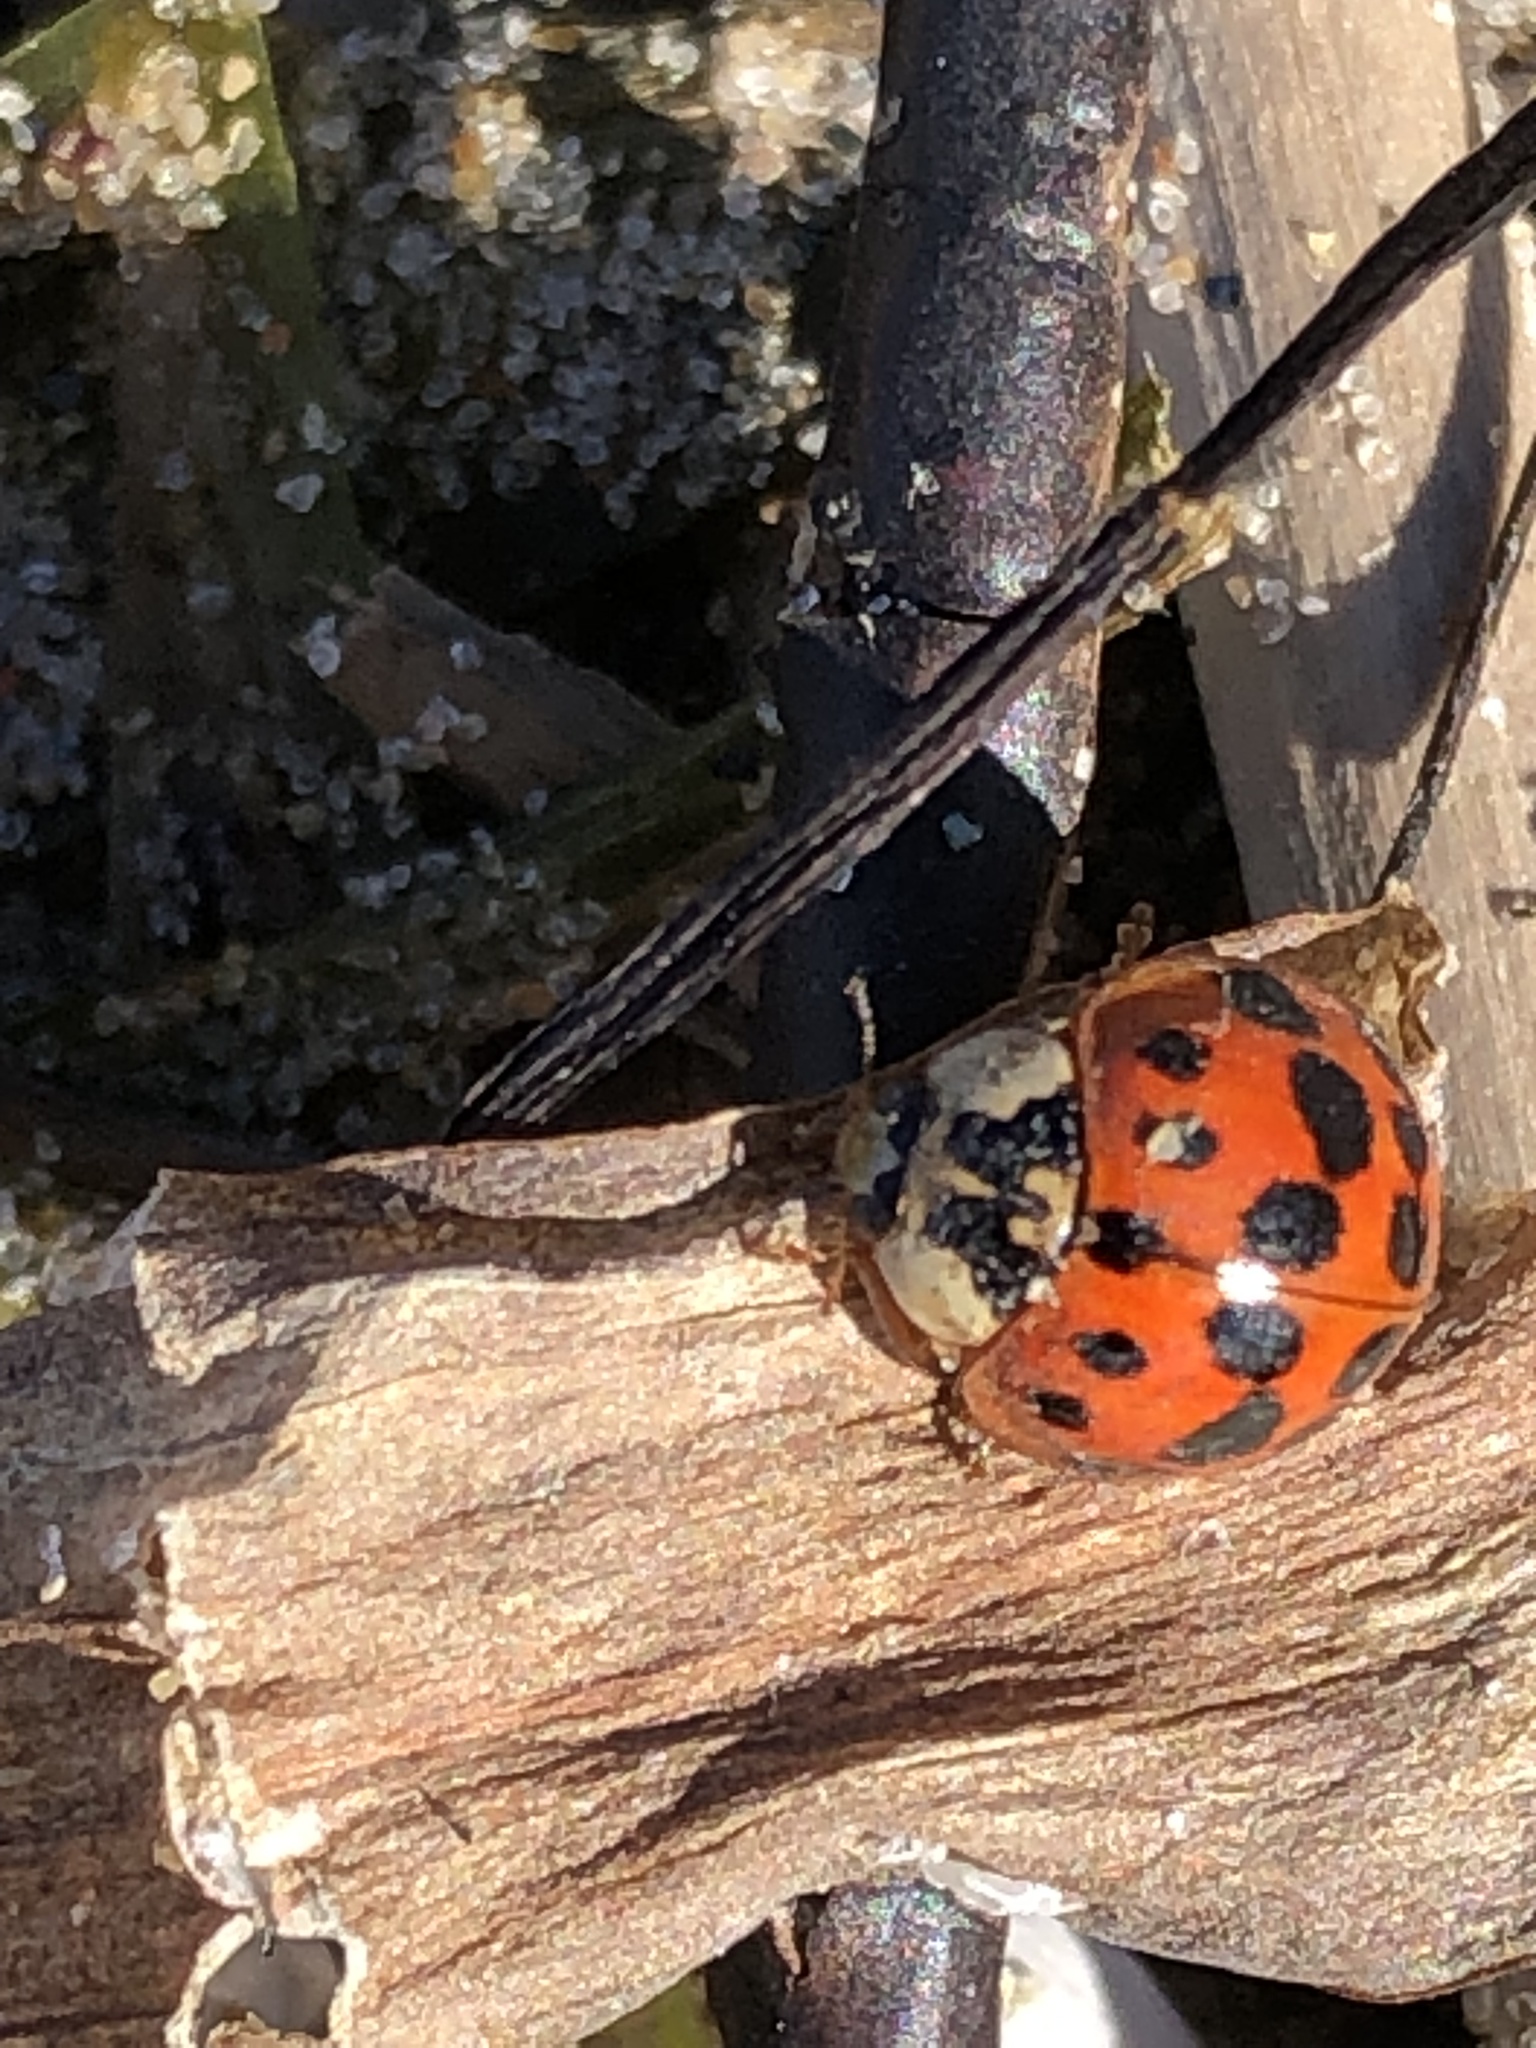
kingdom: Animalia
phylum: Arthropoda
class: Insecta
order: Coleoptera
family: Coccinellidae
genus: Harmonia
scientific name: Harmonia axyridis
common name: Harlequin ladybird
